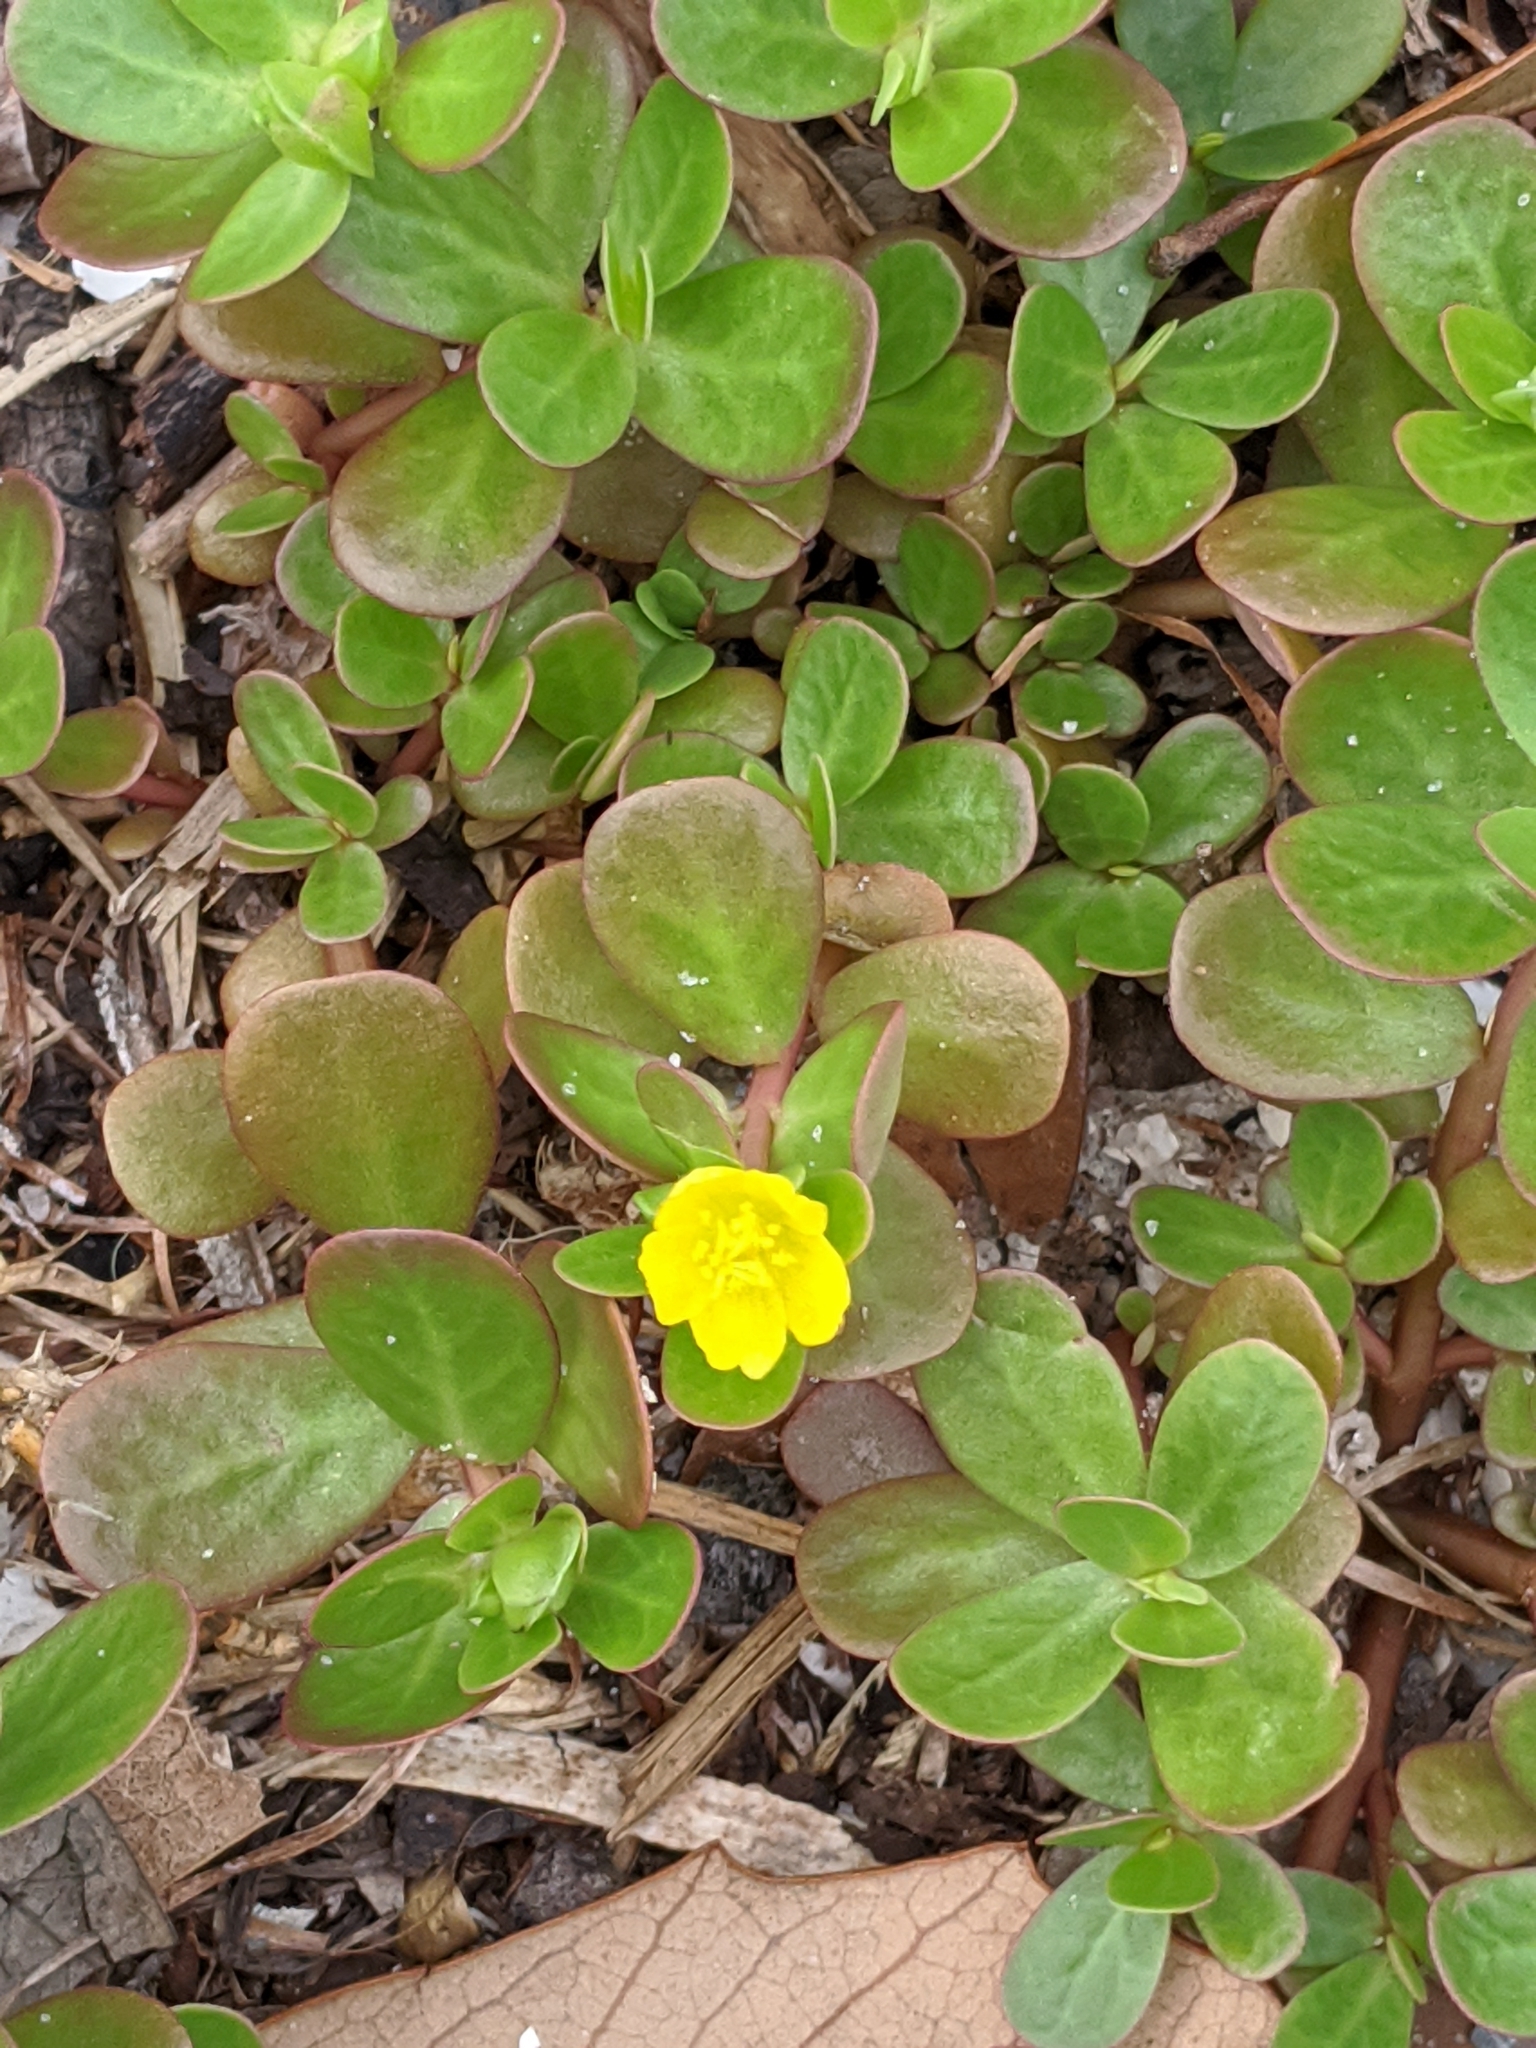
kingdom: Plantae
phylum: Tracheophyta
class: Magnoliopsida
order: Caryophyllales
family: Portulacaceae
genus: Portulaca
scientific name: Portulaca oleracea
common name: Common purslane
